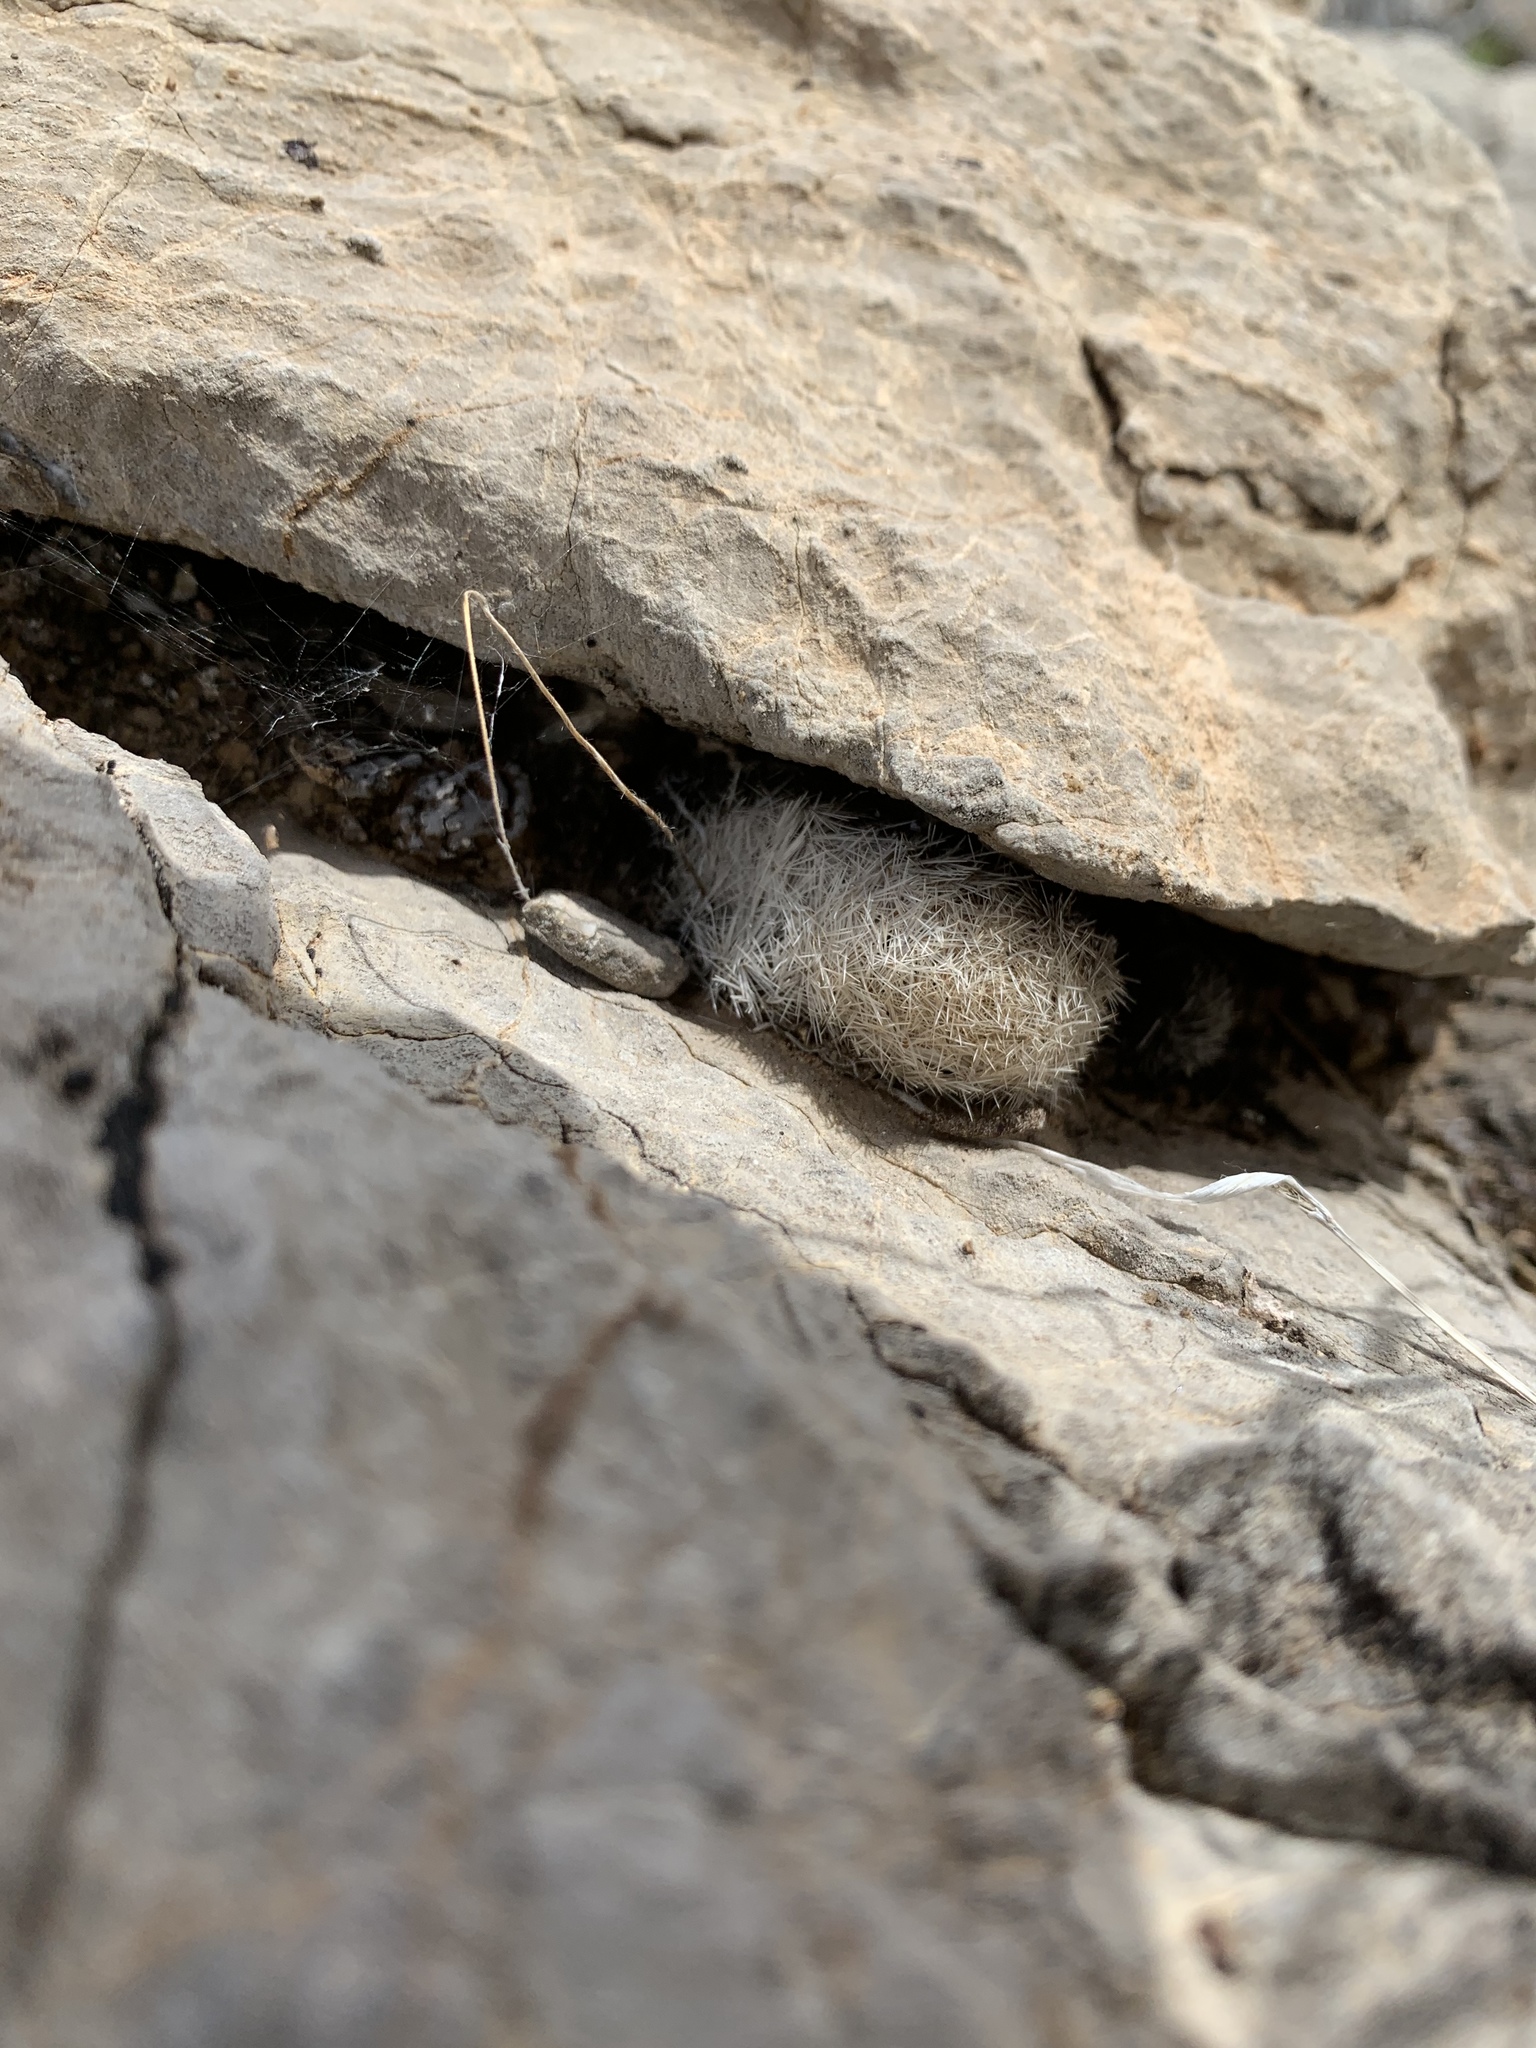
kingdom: Plantae
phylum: Tracheophyta
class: Magnoliopsida
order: Caryophyllales
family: Cactaceae
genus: Mammillaria
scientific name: Mammillaria lasiacantha
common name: Lace-spine nipple cactus
